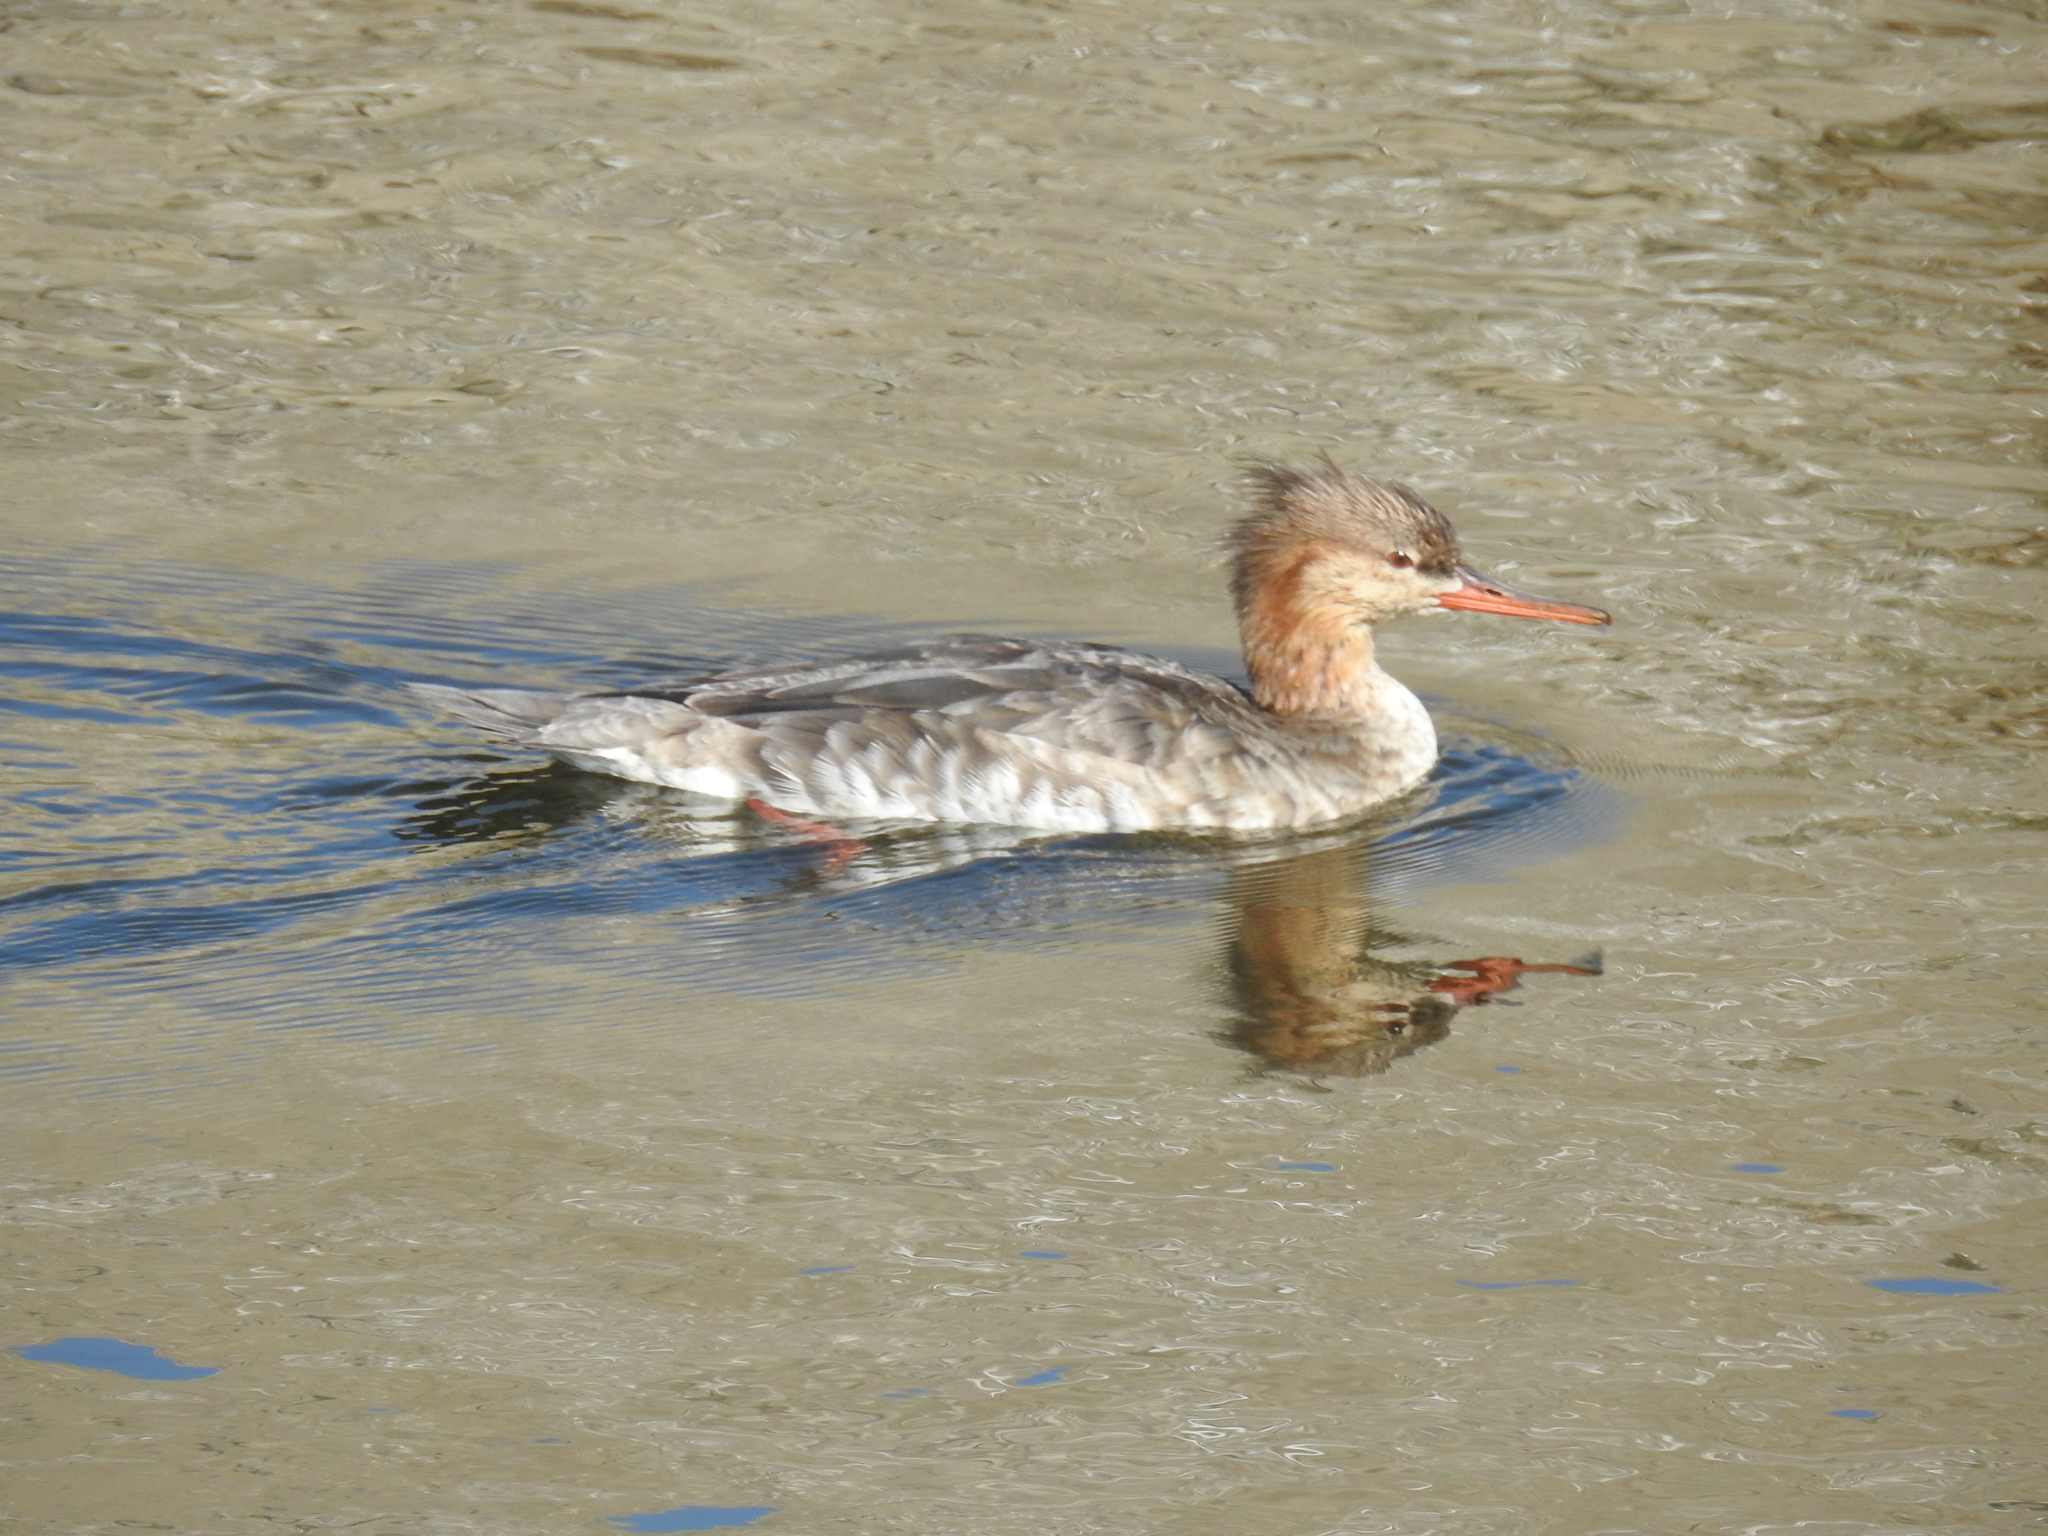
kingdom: Animalia
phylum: Chordata
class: Aves
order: Anseriformes
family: Anatidae
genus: Mergus
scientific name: Mergus serrator
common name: Red-breasted merganser
